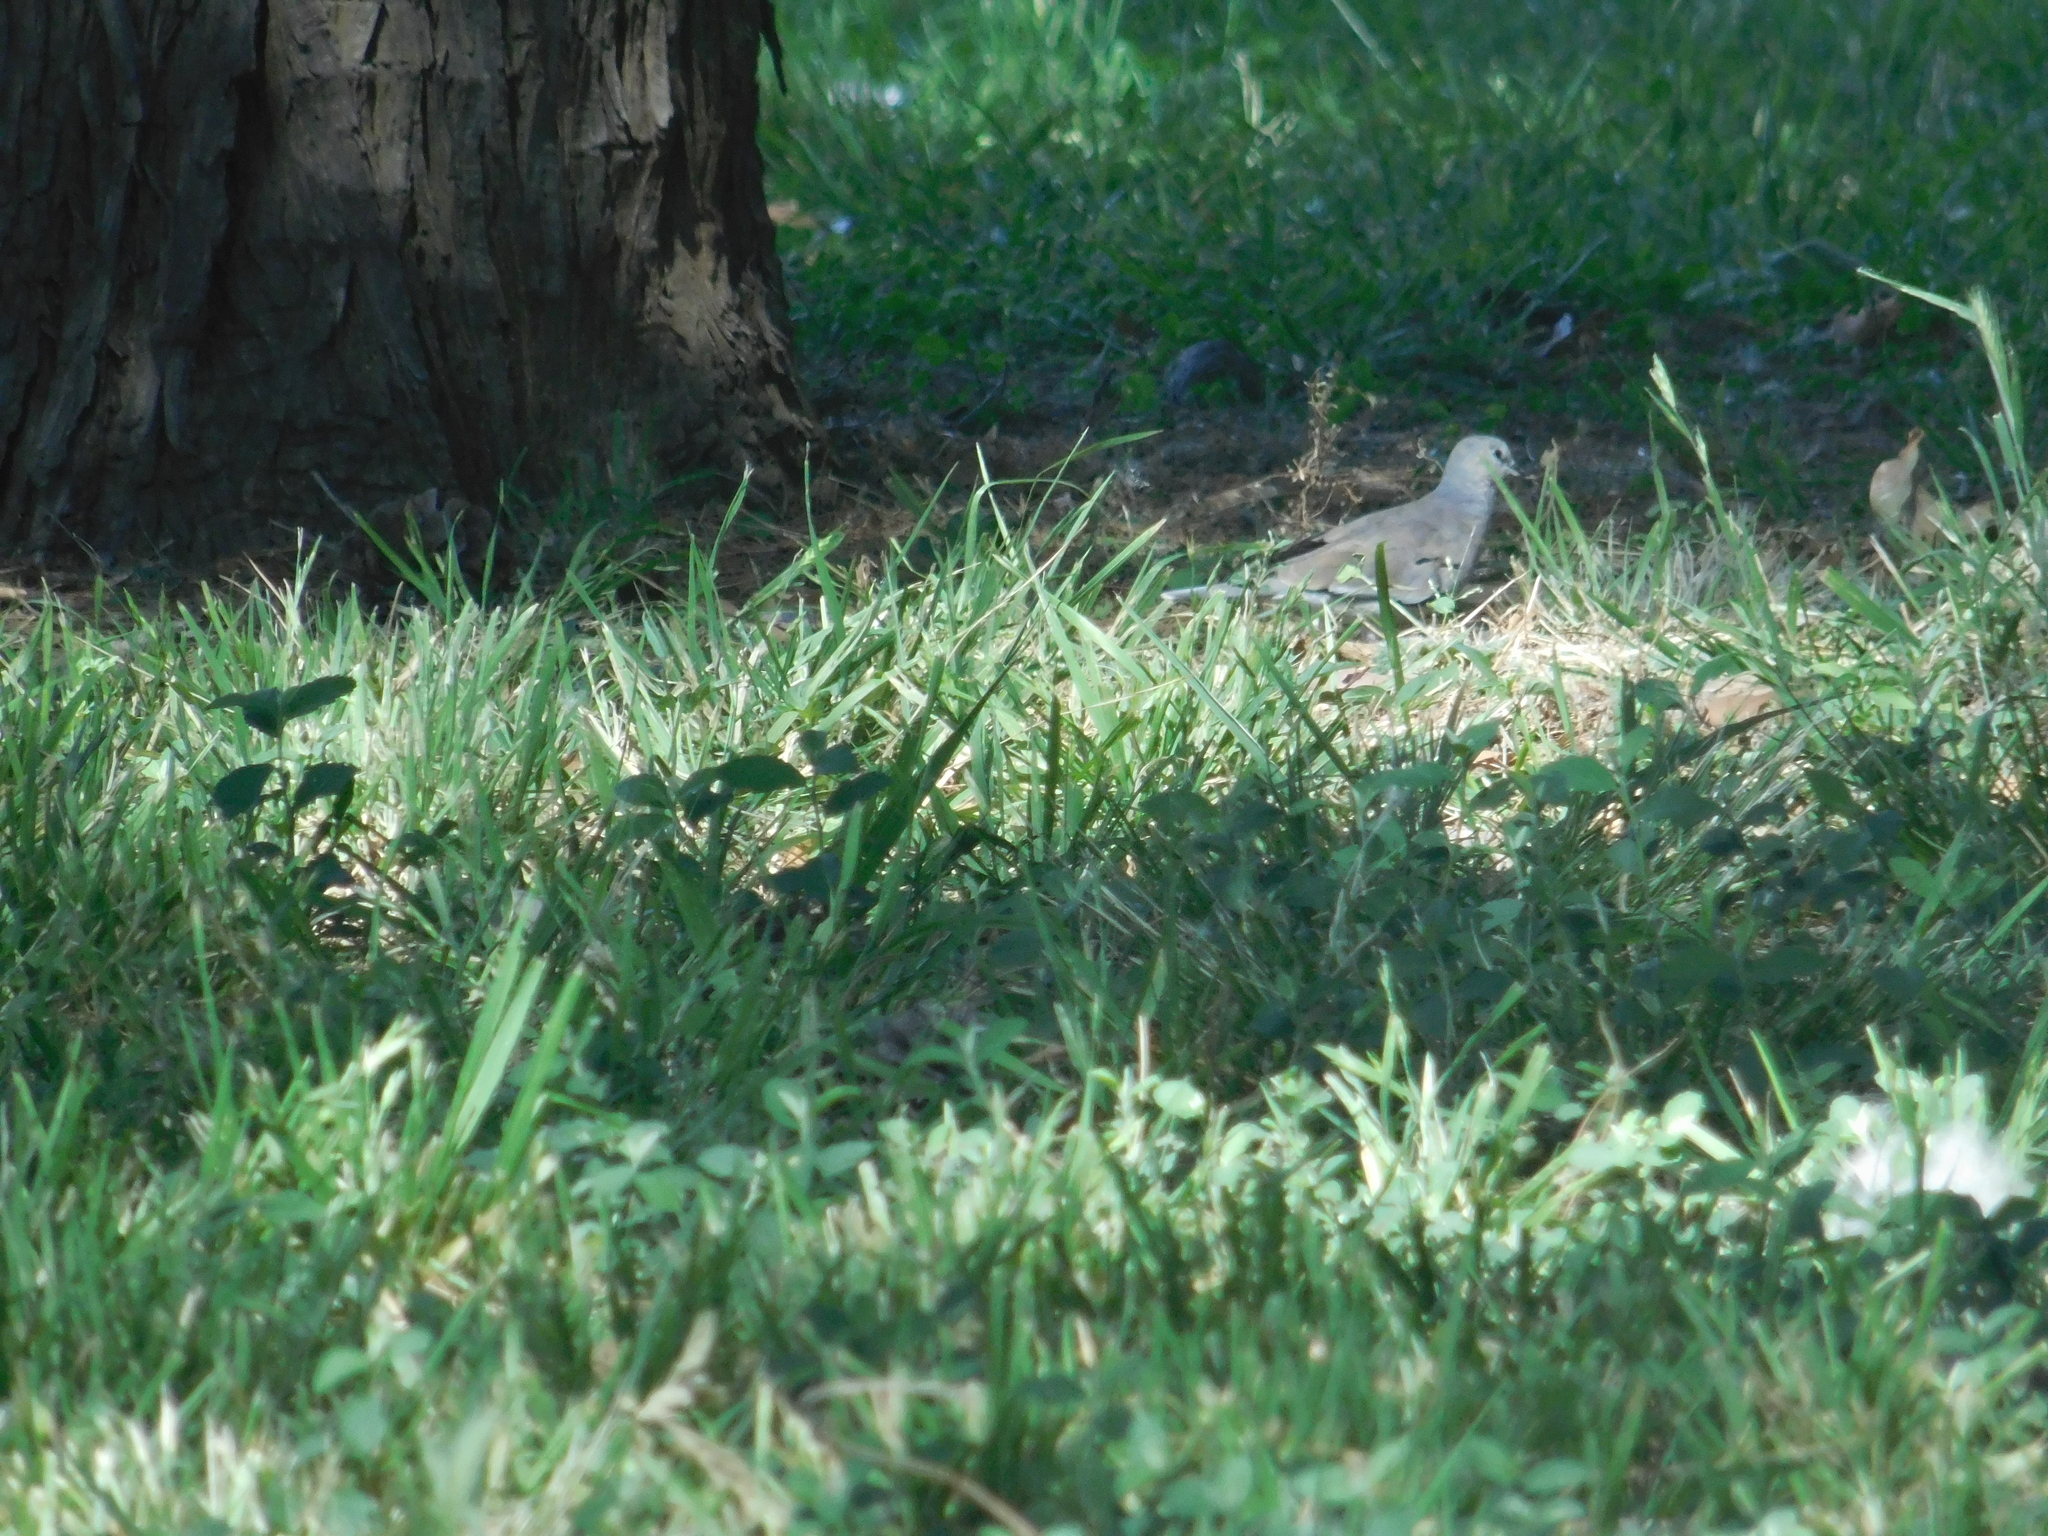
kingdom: Animalia
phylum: Chordata
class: Aves
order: Columbiformes
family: Columbidae
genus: Columbina
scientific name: Columbina picui
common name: Picui ground dove
